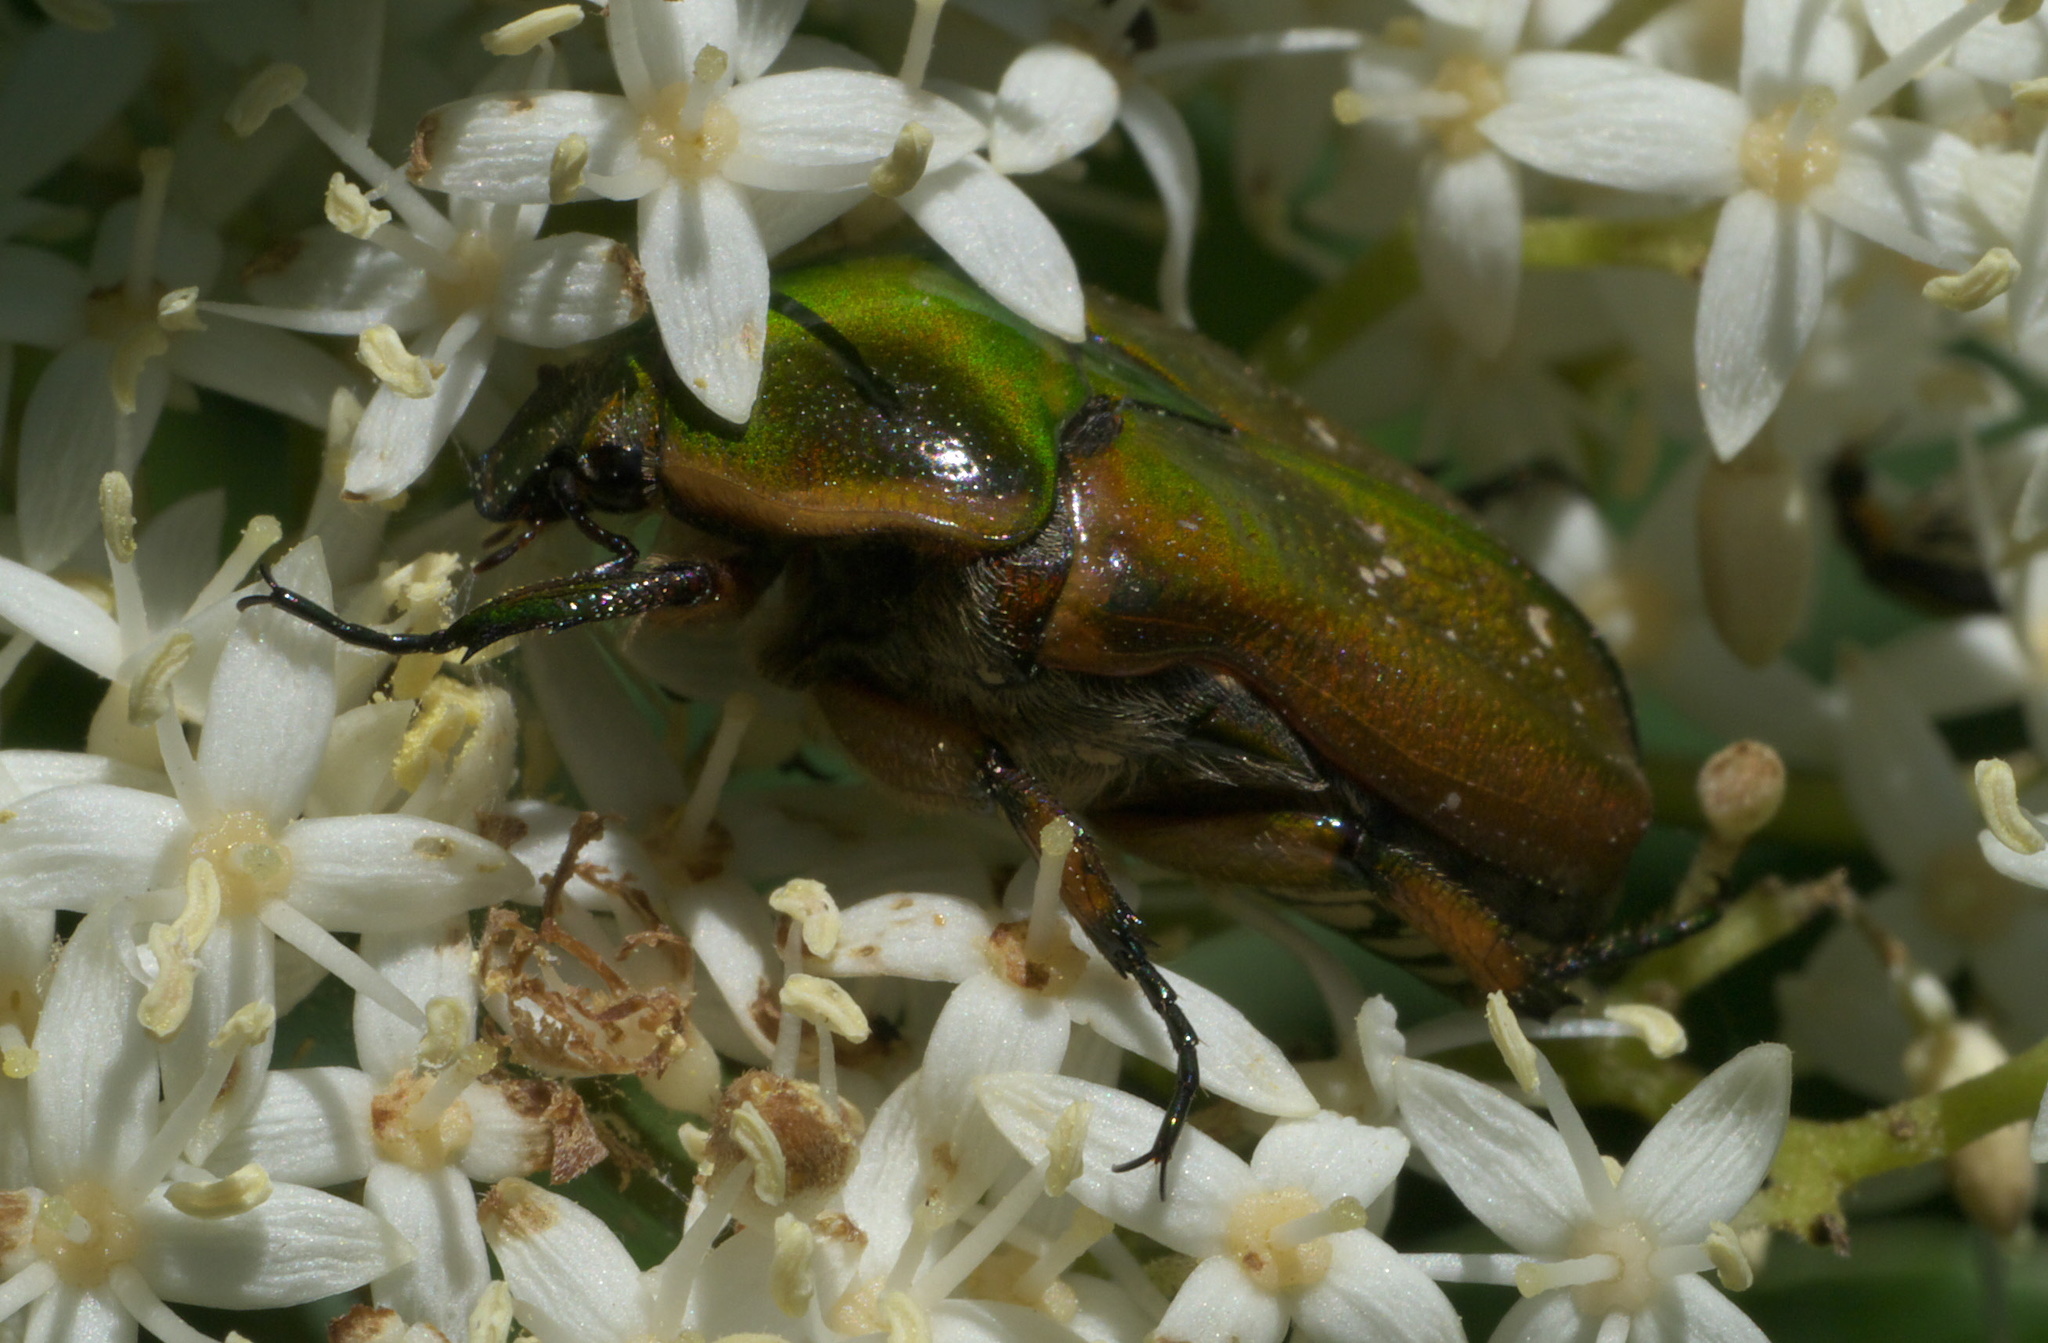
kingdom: Animalia
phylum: Arthropoda
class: Insecta
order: Coleoptera
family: Scarabaeidae
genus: Euphoria
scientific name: Euphoria fulgida
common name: Emerald euphoria
